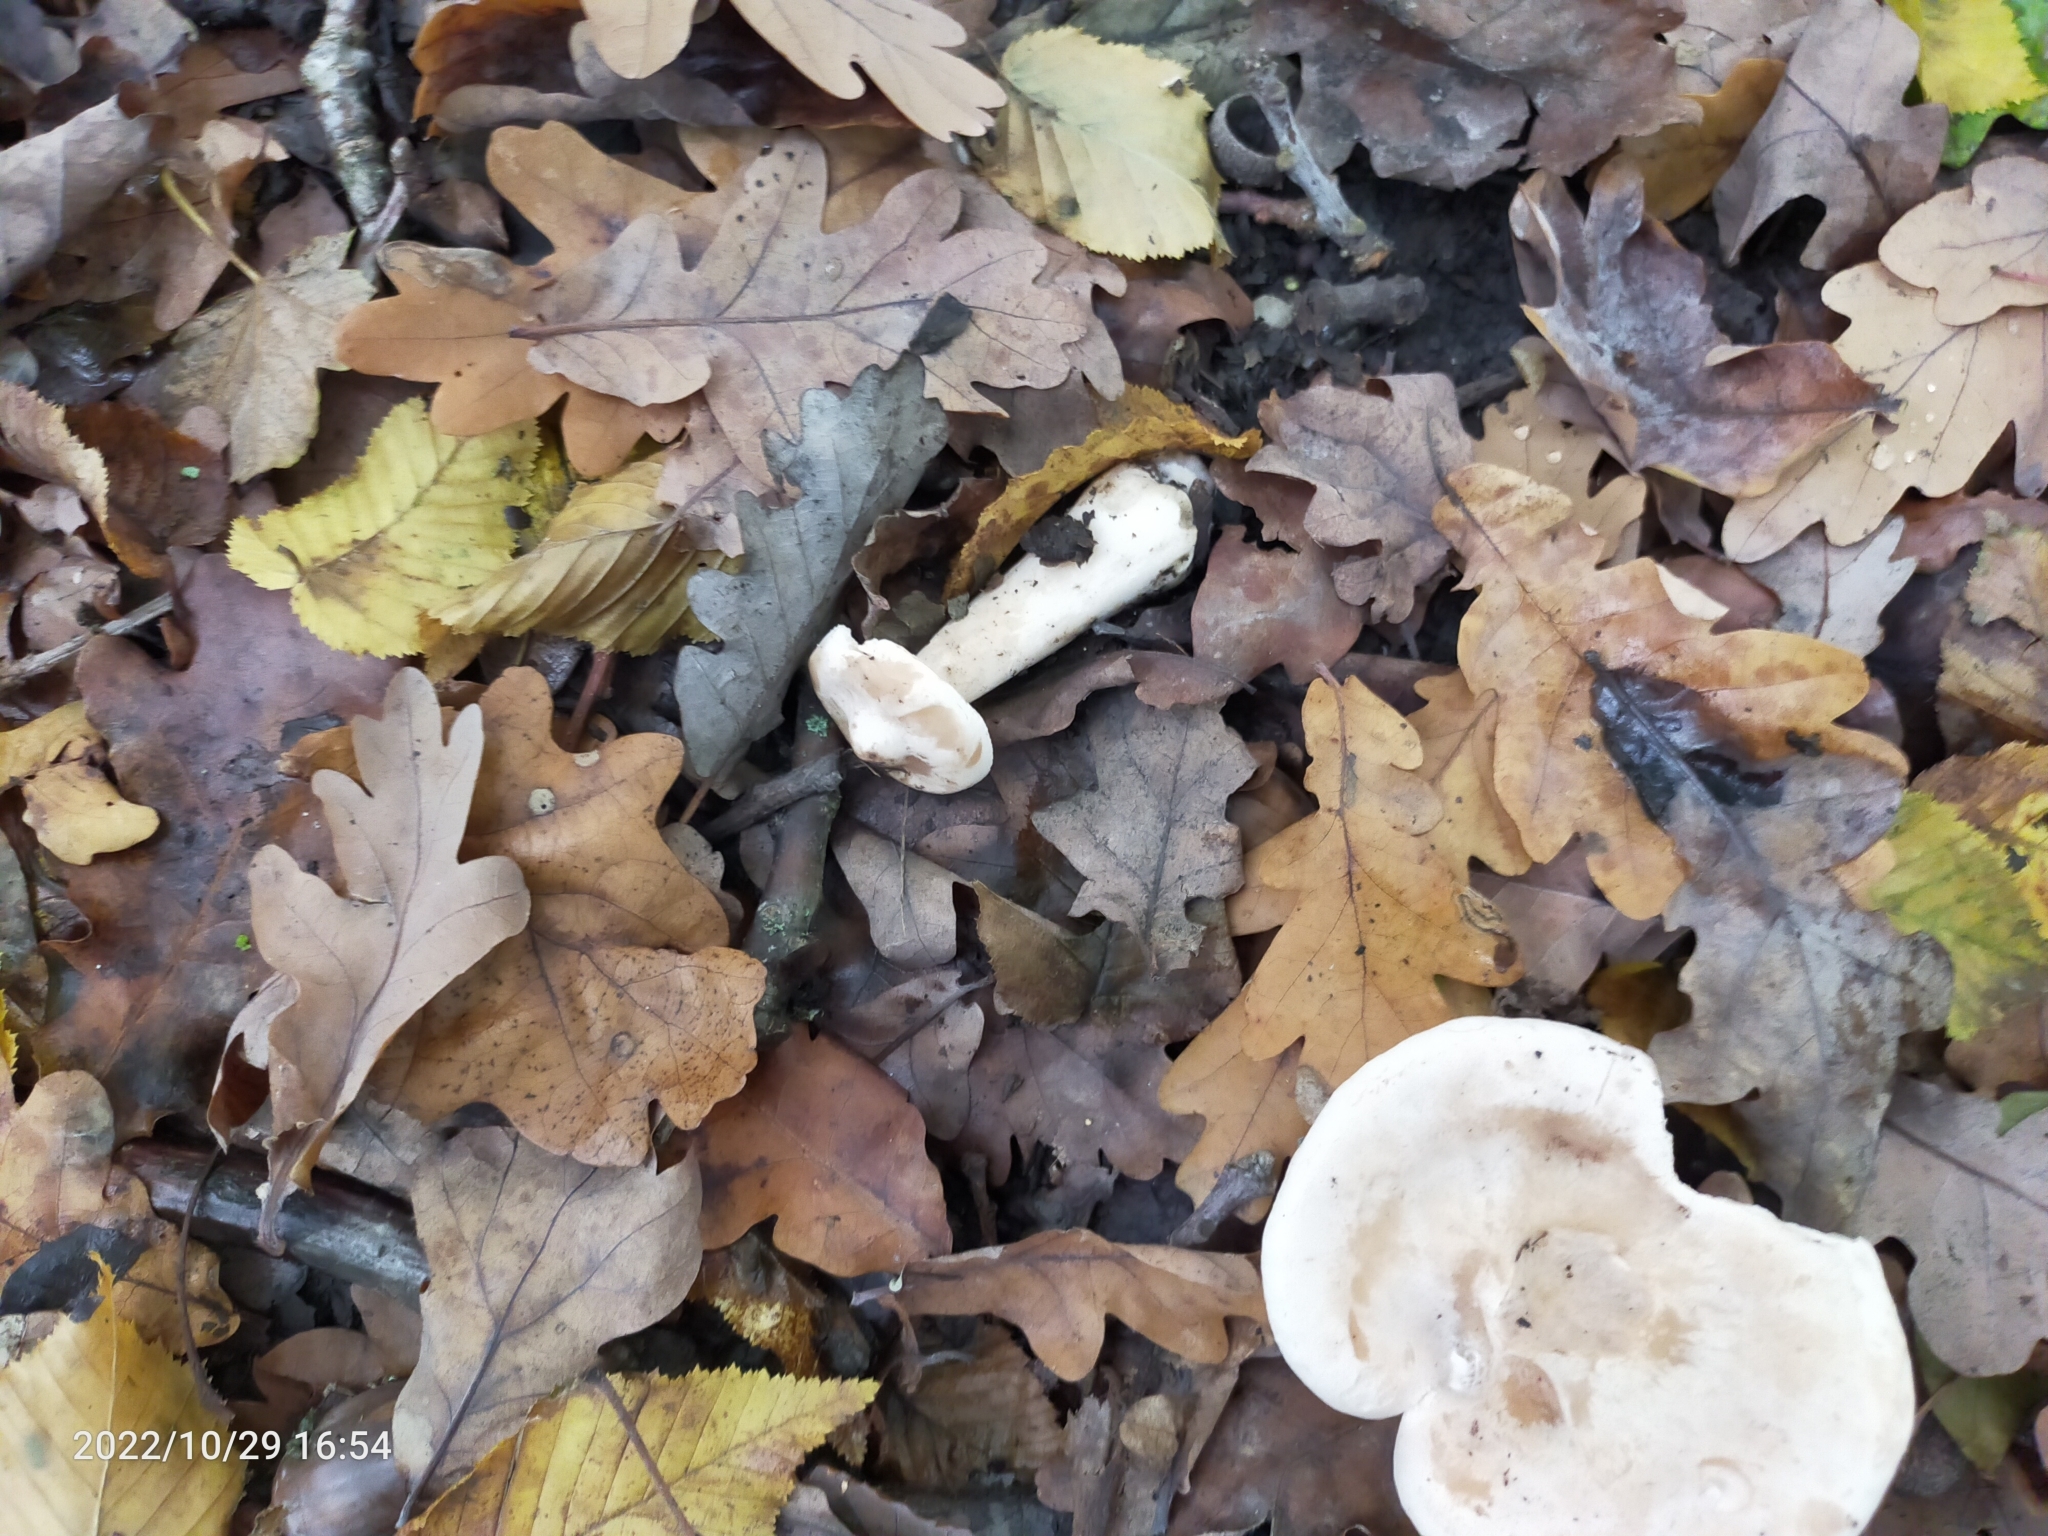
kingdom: Fungi
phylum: Basidiomycota
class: Agaricomycetes
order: Agaricales
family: Tricholomataceae
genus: Infundibulicybe
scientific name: Infundibulicybe geotropa
